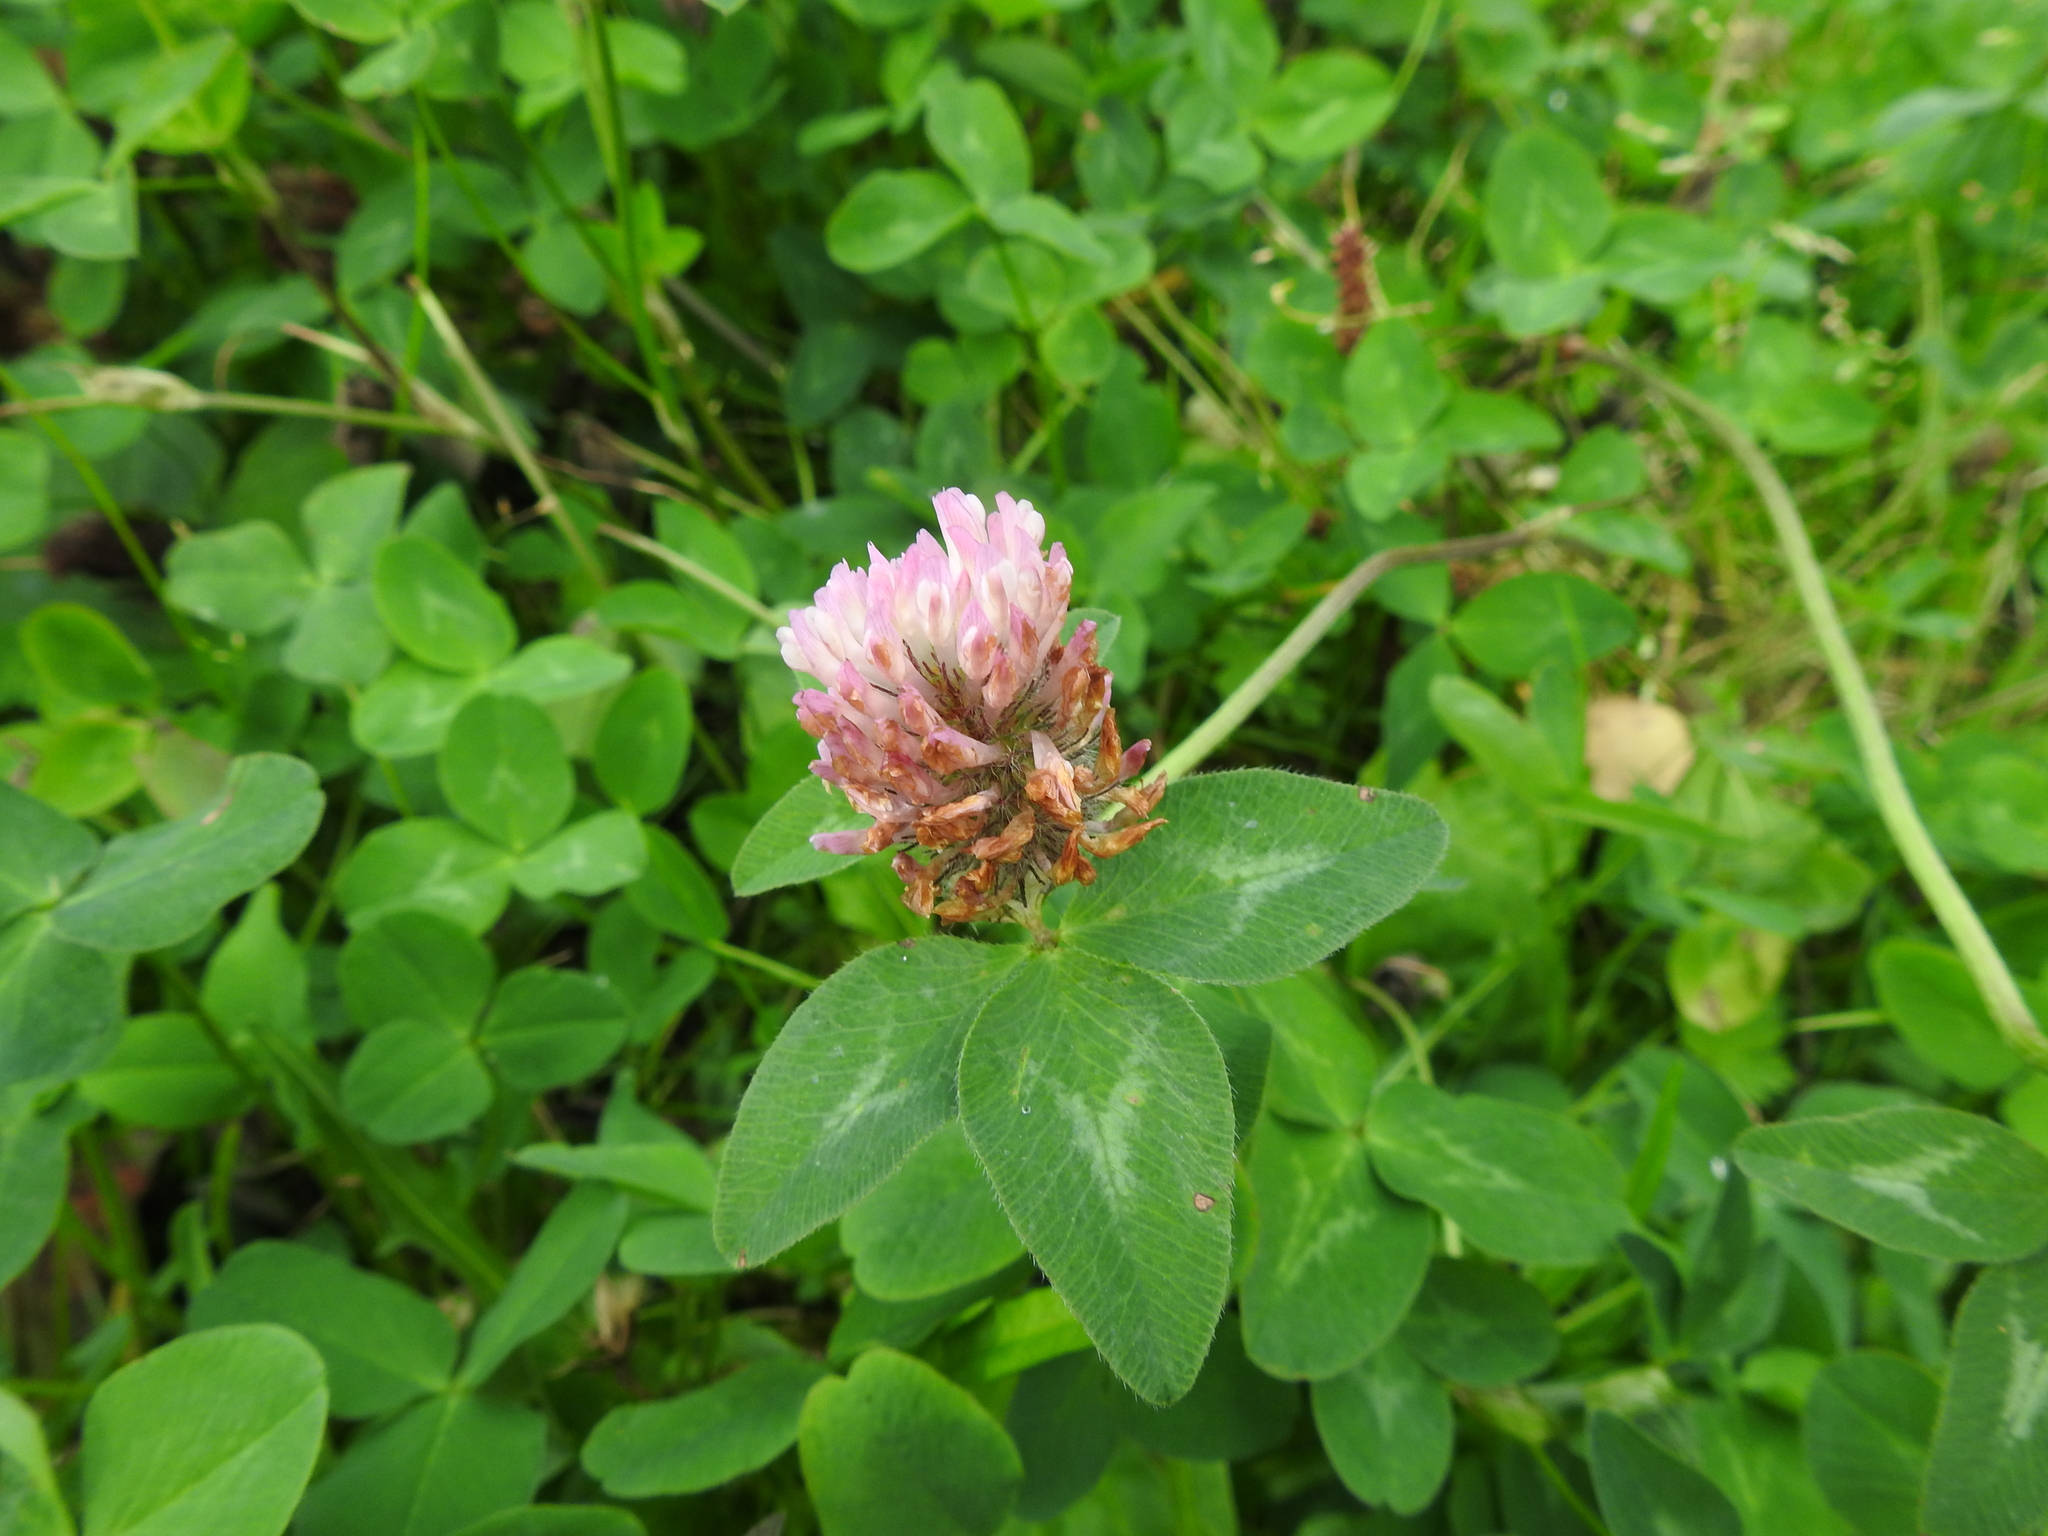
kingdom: Plantae
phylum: Tracheophyta
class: Magnoliopsida
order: Fabales
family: Fabaceae
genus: Trifolium
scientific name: Trifolium pratense
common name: Red clover
